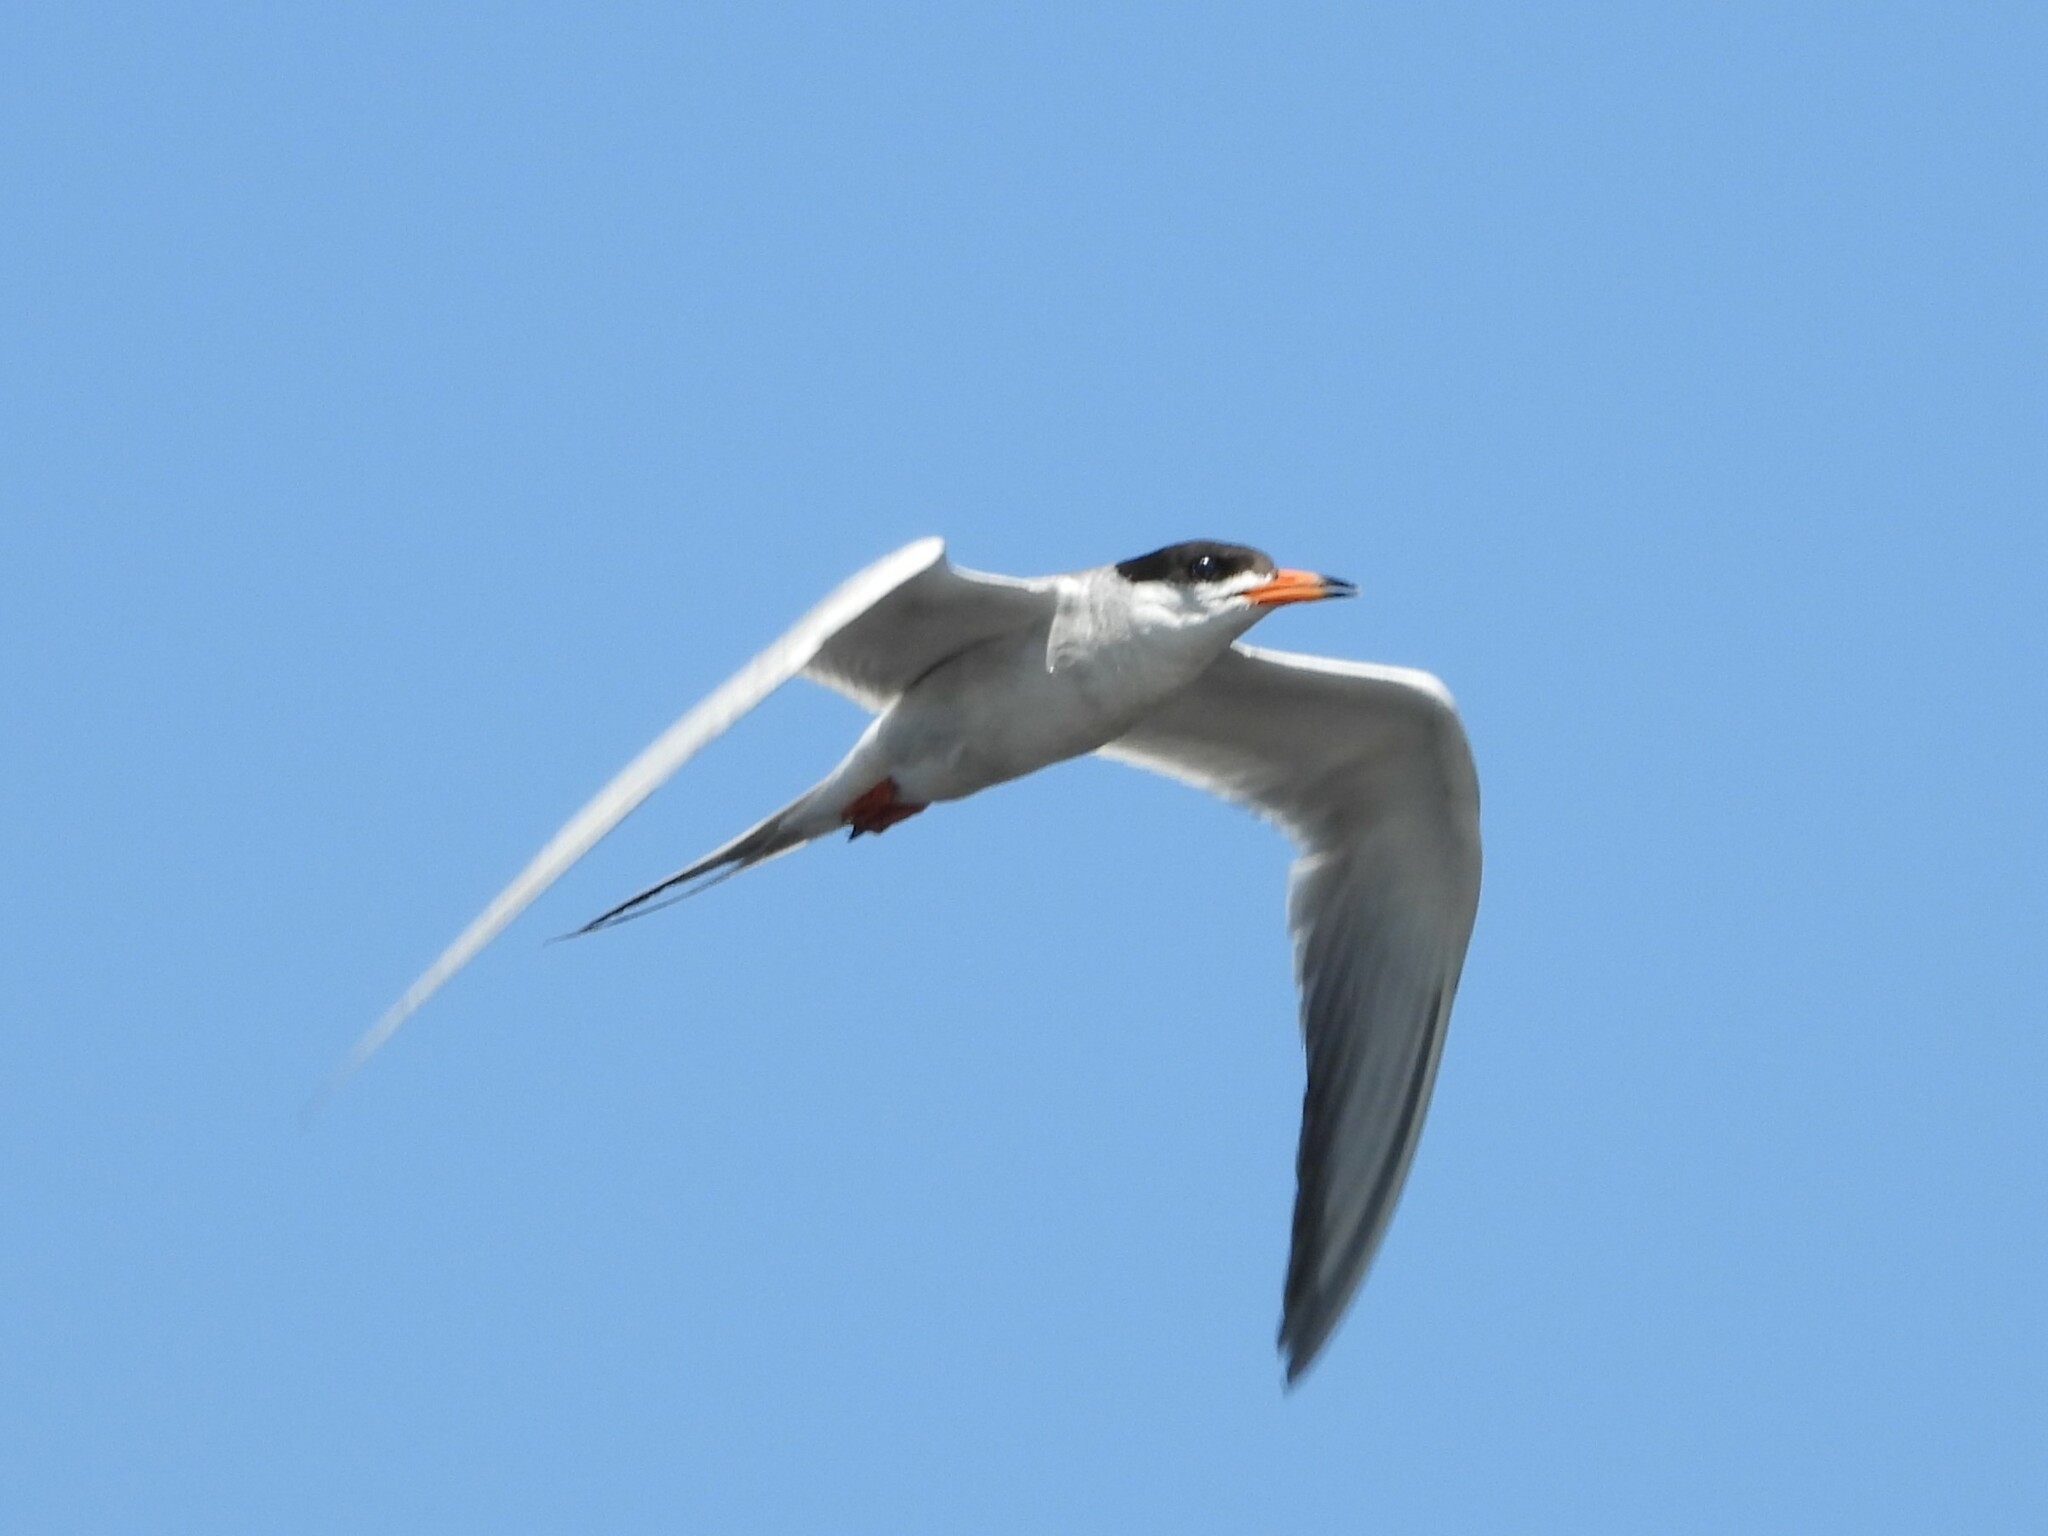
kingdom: Animalia
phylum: Chordata
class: Aves
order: Charadriiformes
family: Laridae
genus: Sterna
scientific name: Sterna forsteri
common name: Forster's tern
